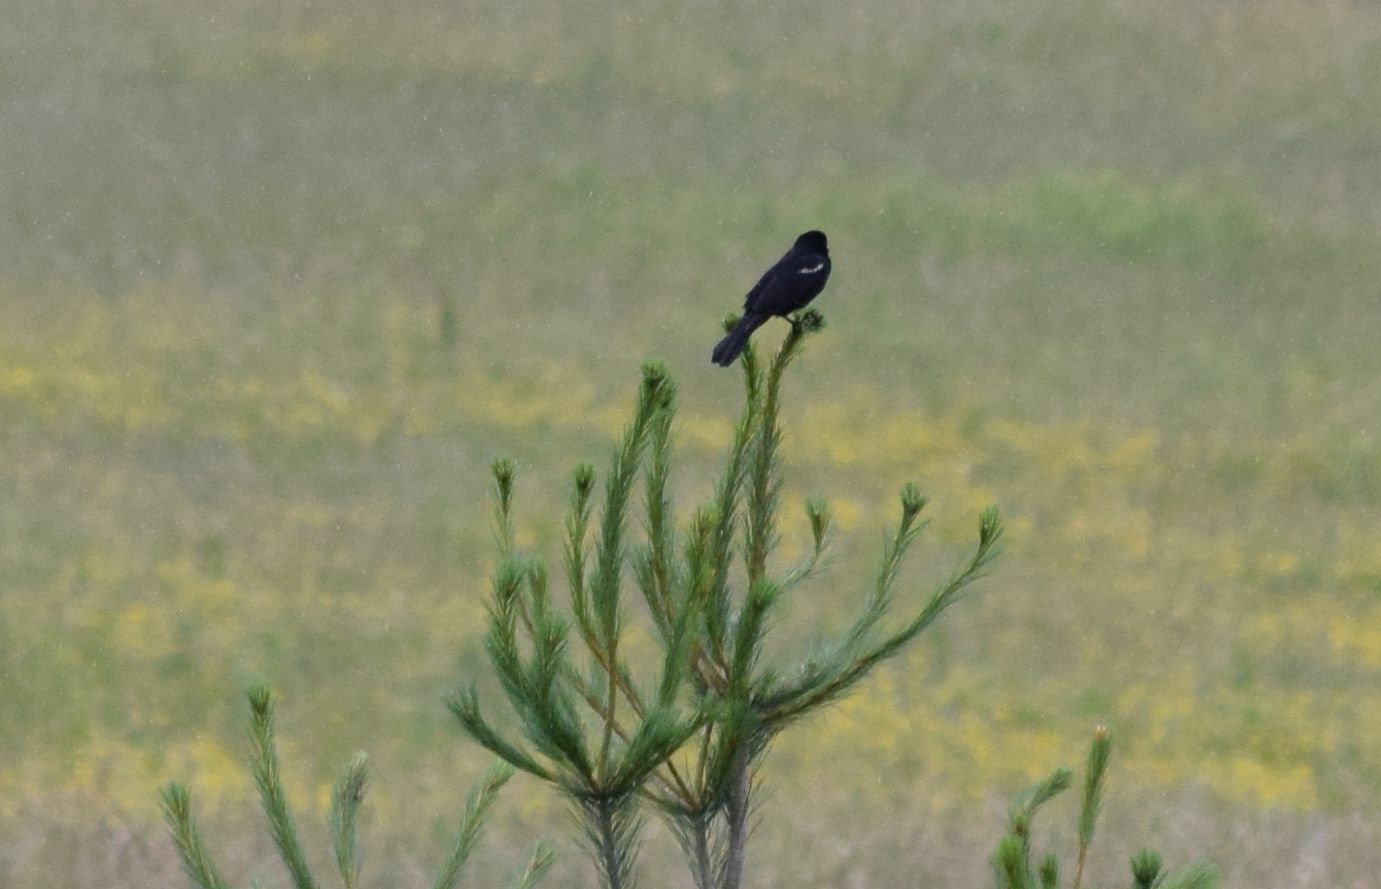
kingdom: Animalia
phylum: Chordata
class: Aves
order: Passeriformes
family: Icteridae
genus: Agelaius
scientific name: Agelaius phoeniceus
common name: Red-winged blackbird
